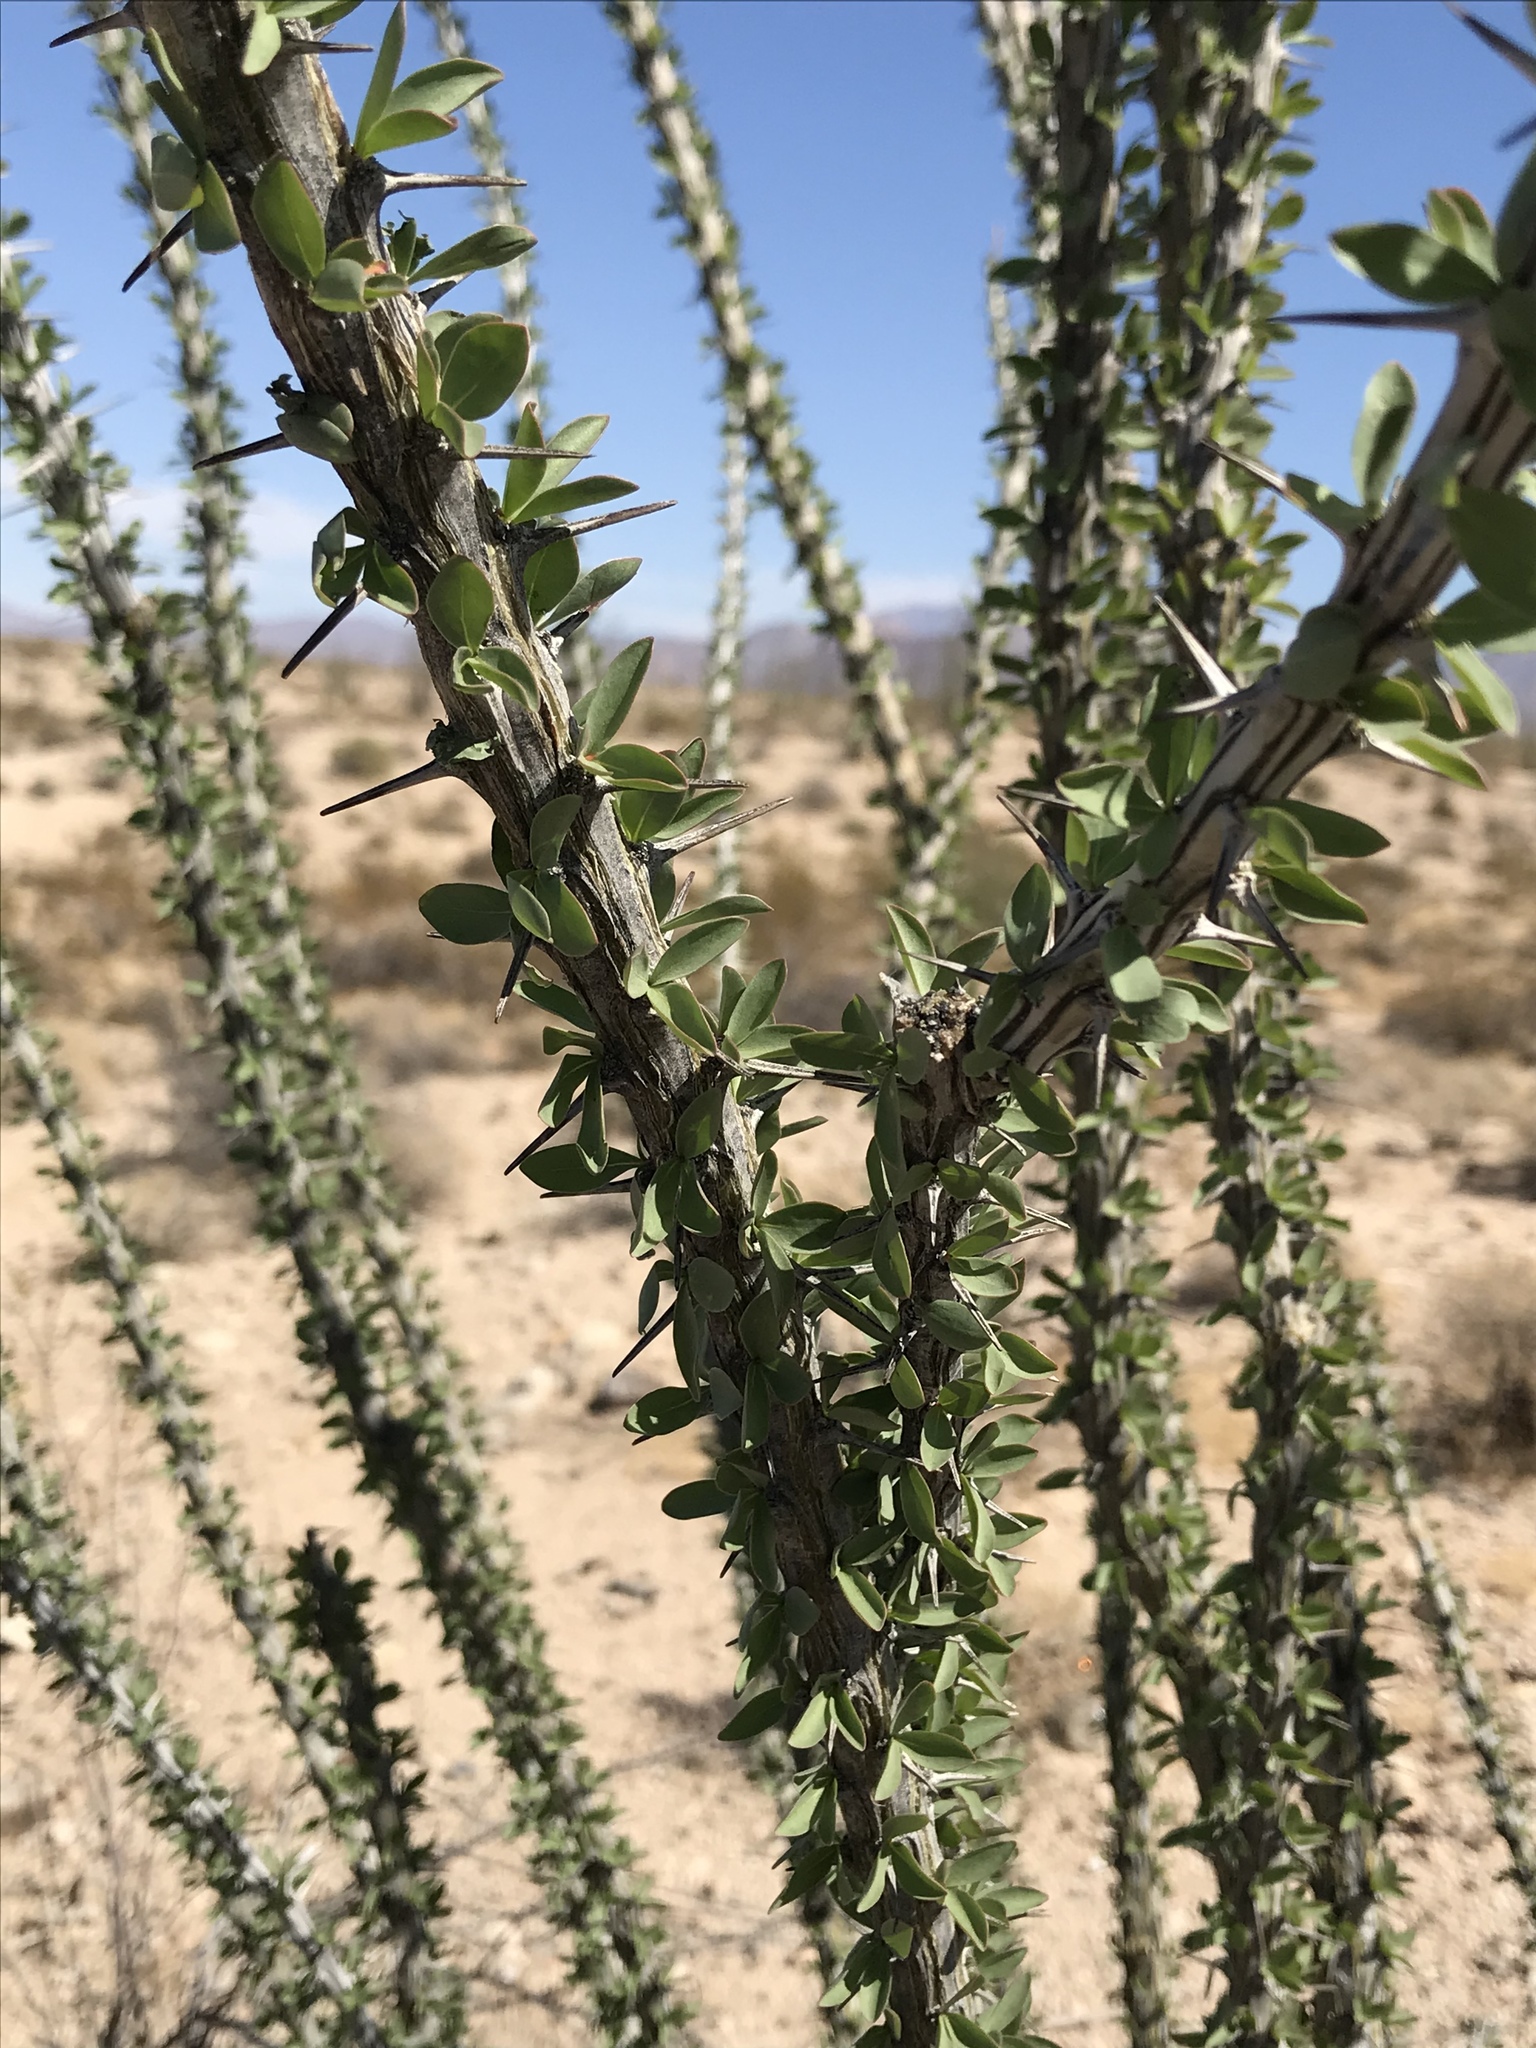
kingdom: Plantae
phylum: Tracheophyta
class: Magnoliopsida
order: Ericales
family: Fouquieriaceae
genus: Fouquieria
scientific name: Fouquieria splendens
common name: Vine-cactus
